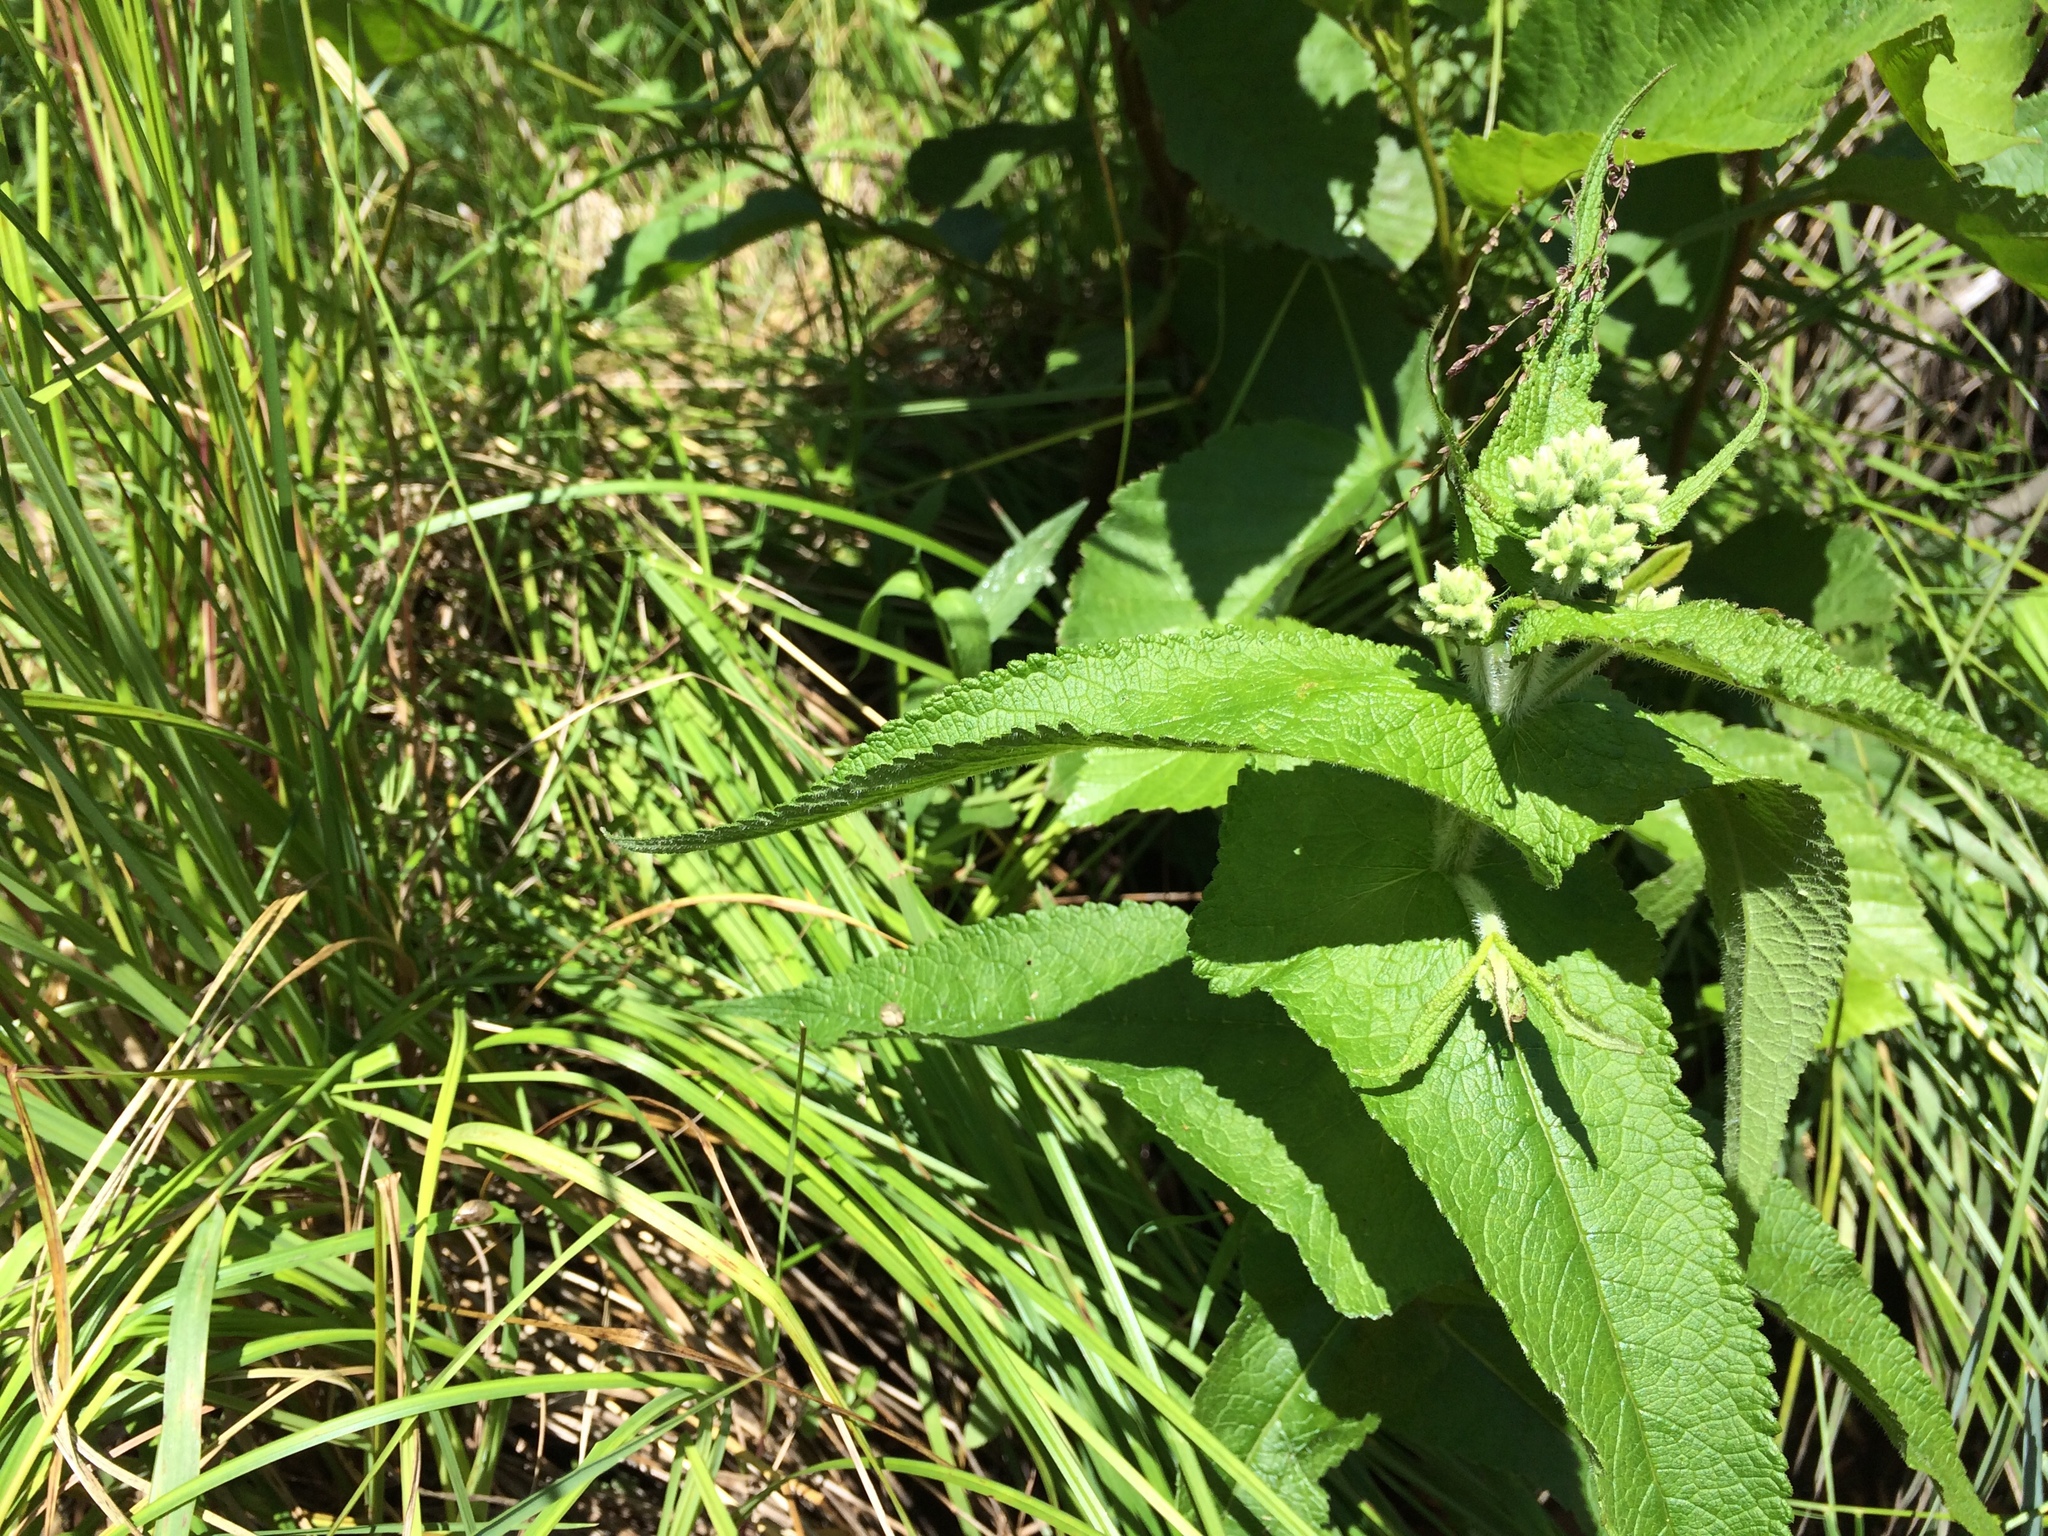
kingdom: Plantae
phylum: Tracheophyta
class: Magnoliopsida
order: Asterales
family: Asteraceae
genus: Eupatorium
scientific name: Eupatorium perfoliatum
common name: Boneset
